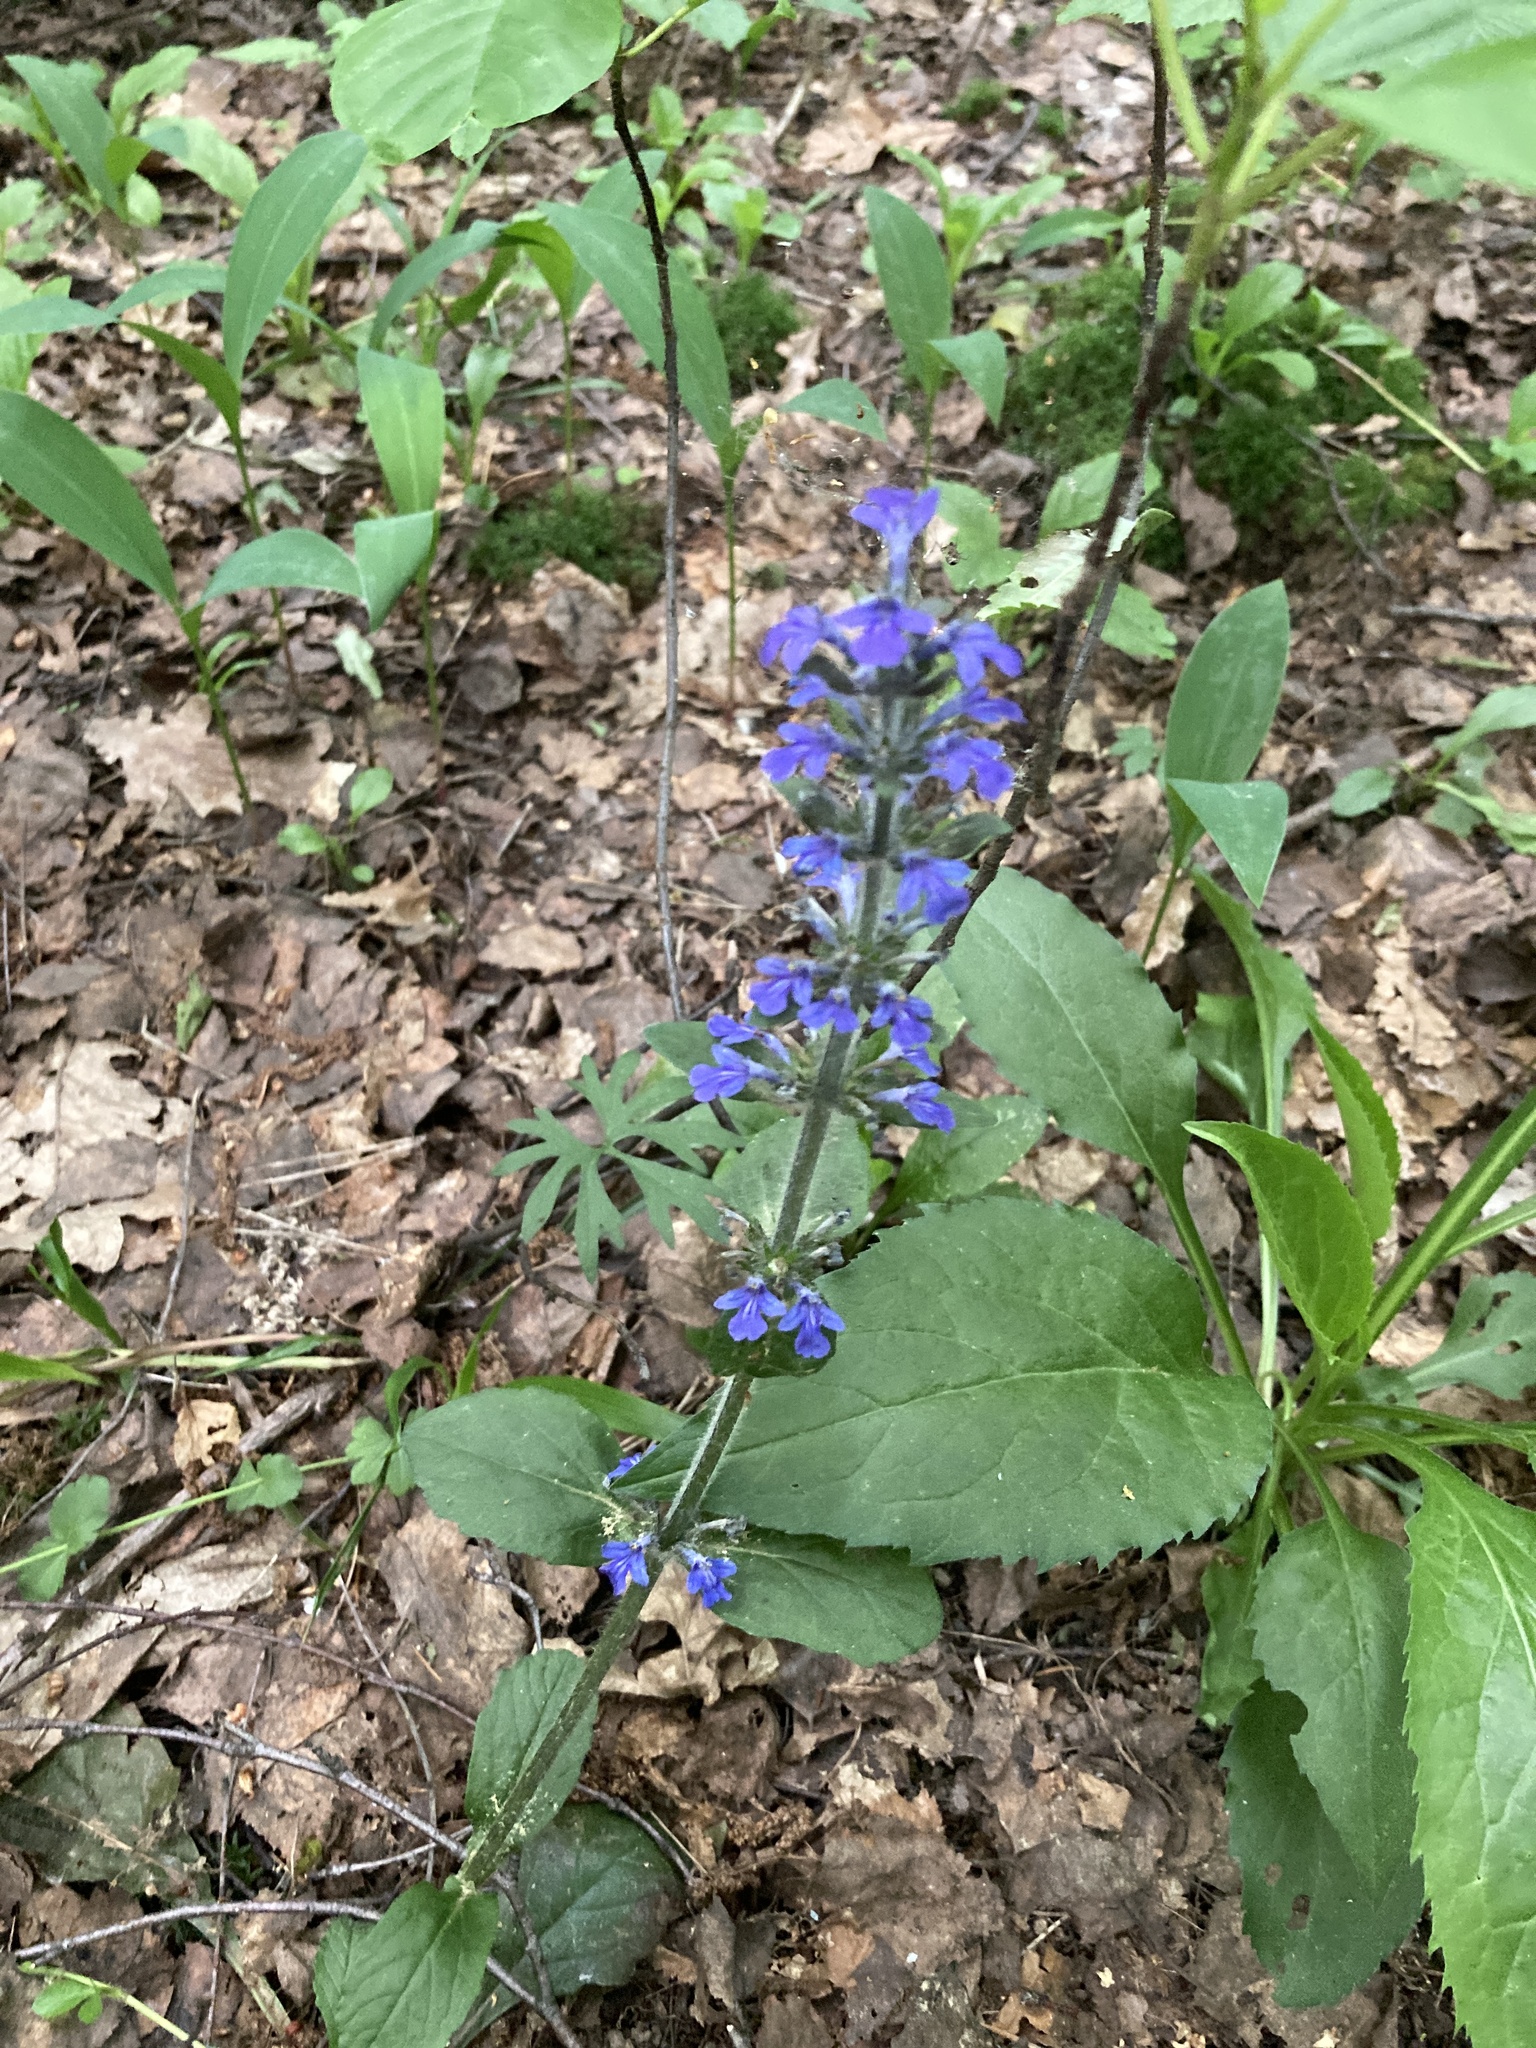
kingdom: Plantae
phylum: Tracheophyta
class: Magnoliopsida
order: Lamiales
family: Lamiaceae
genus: Ajuga
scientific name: Ajuga reptans
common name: Bugle
